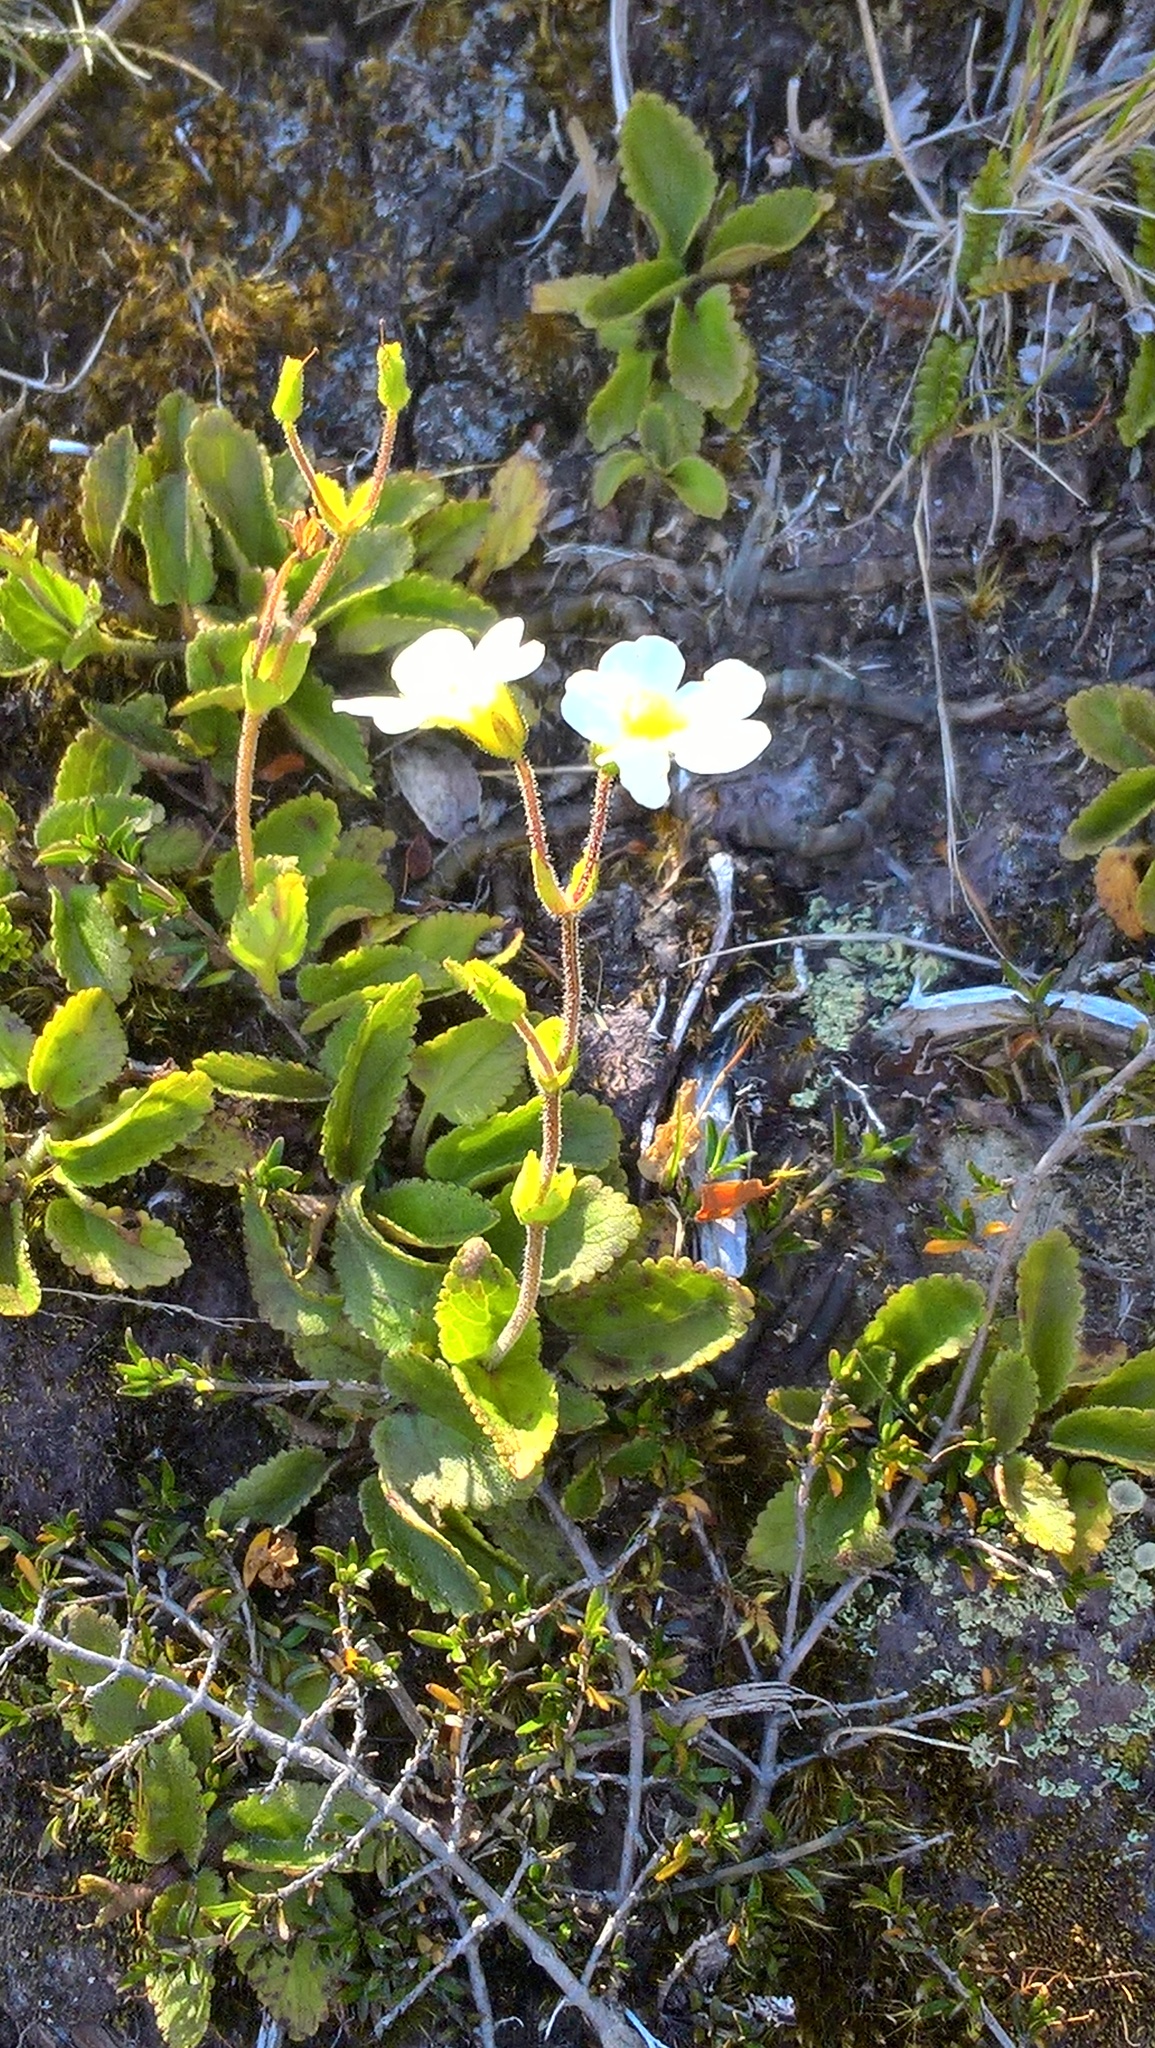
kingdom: Plantae
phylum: Tracheophyta
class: Magnoliopsida
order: Lamiales
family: Plantaginaceae
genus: Ourisia
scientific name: Ourisia macrophylla
